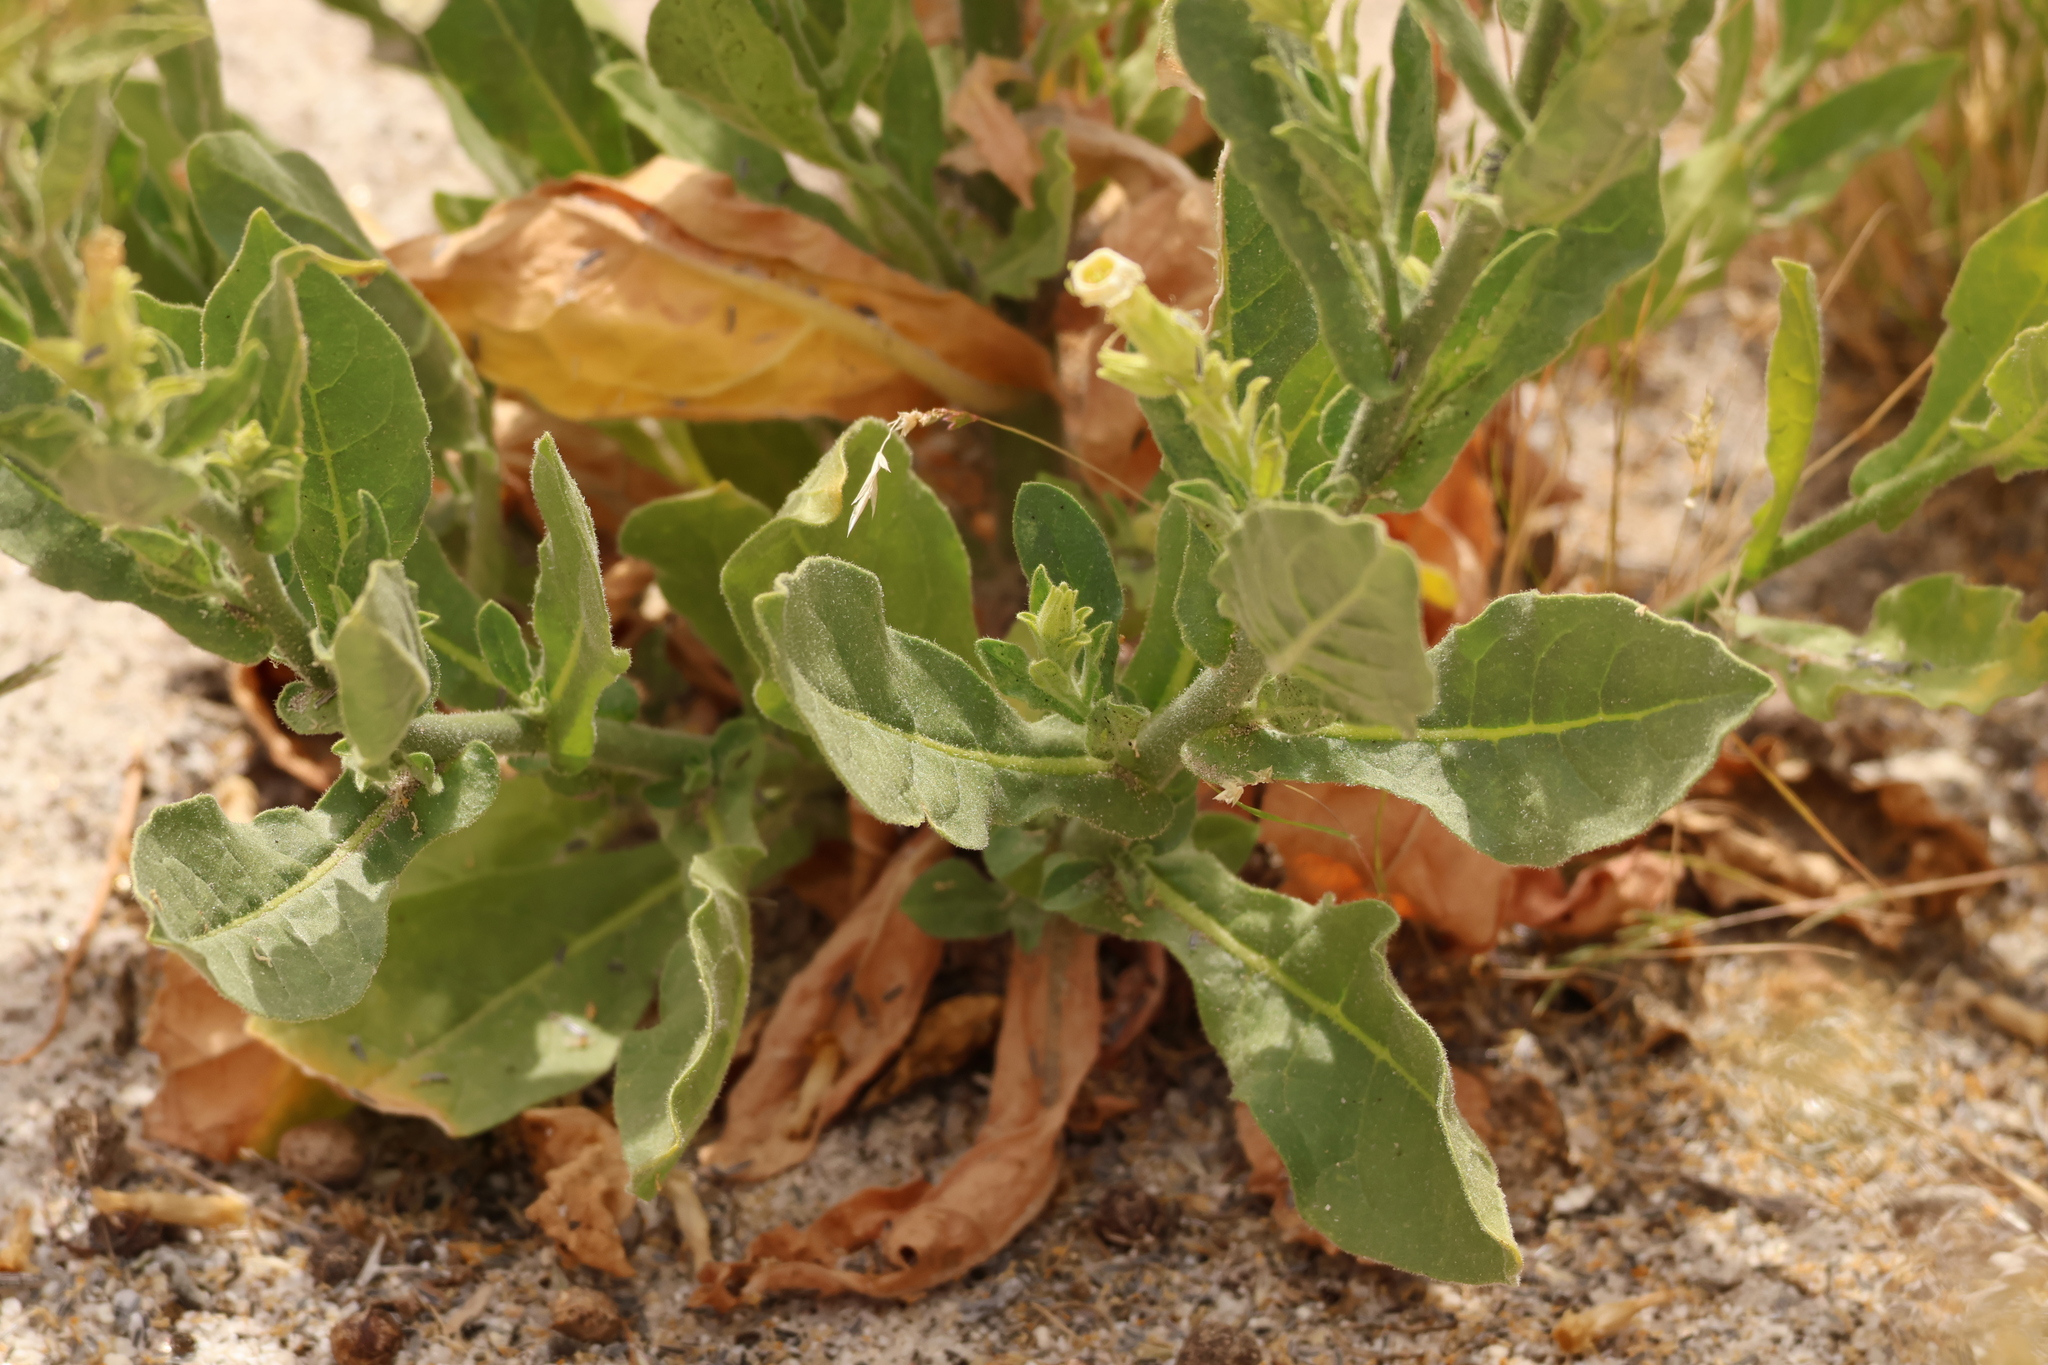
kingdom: Plantae
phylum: Tracheophyta
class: Magnoliopsida
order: Solanales
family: Solanaceae
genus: Nicotiana
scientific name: Nicotiana obtusifolia
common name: Desert tobacco
